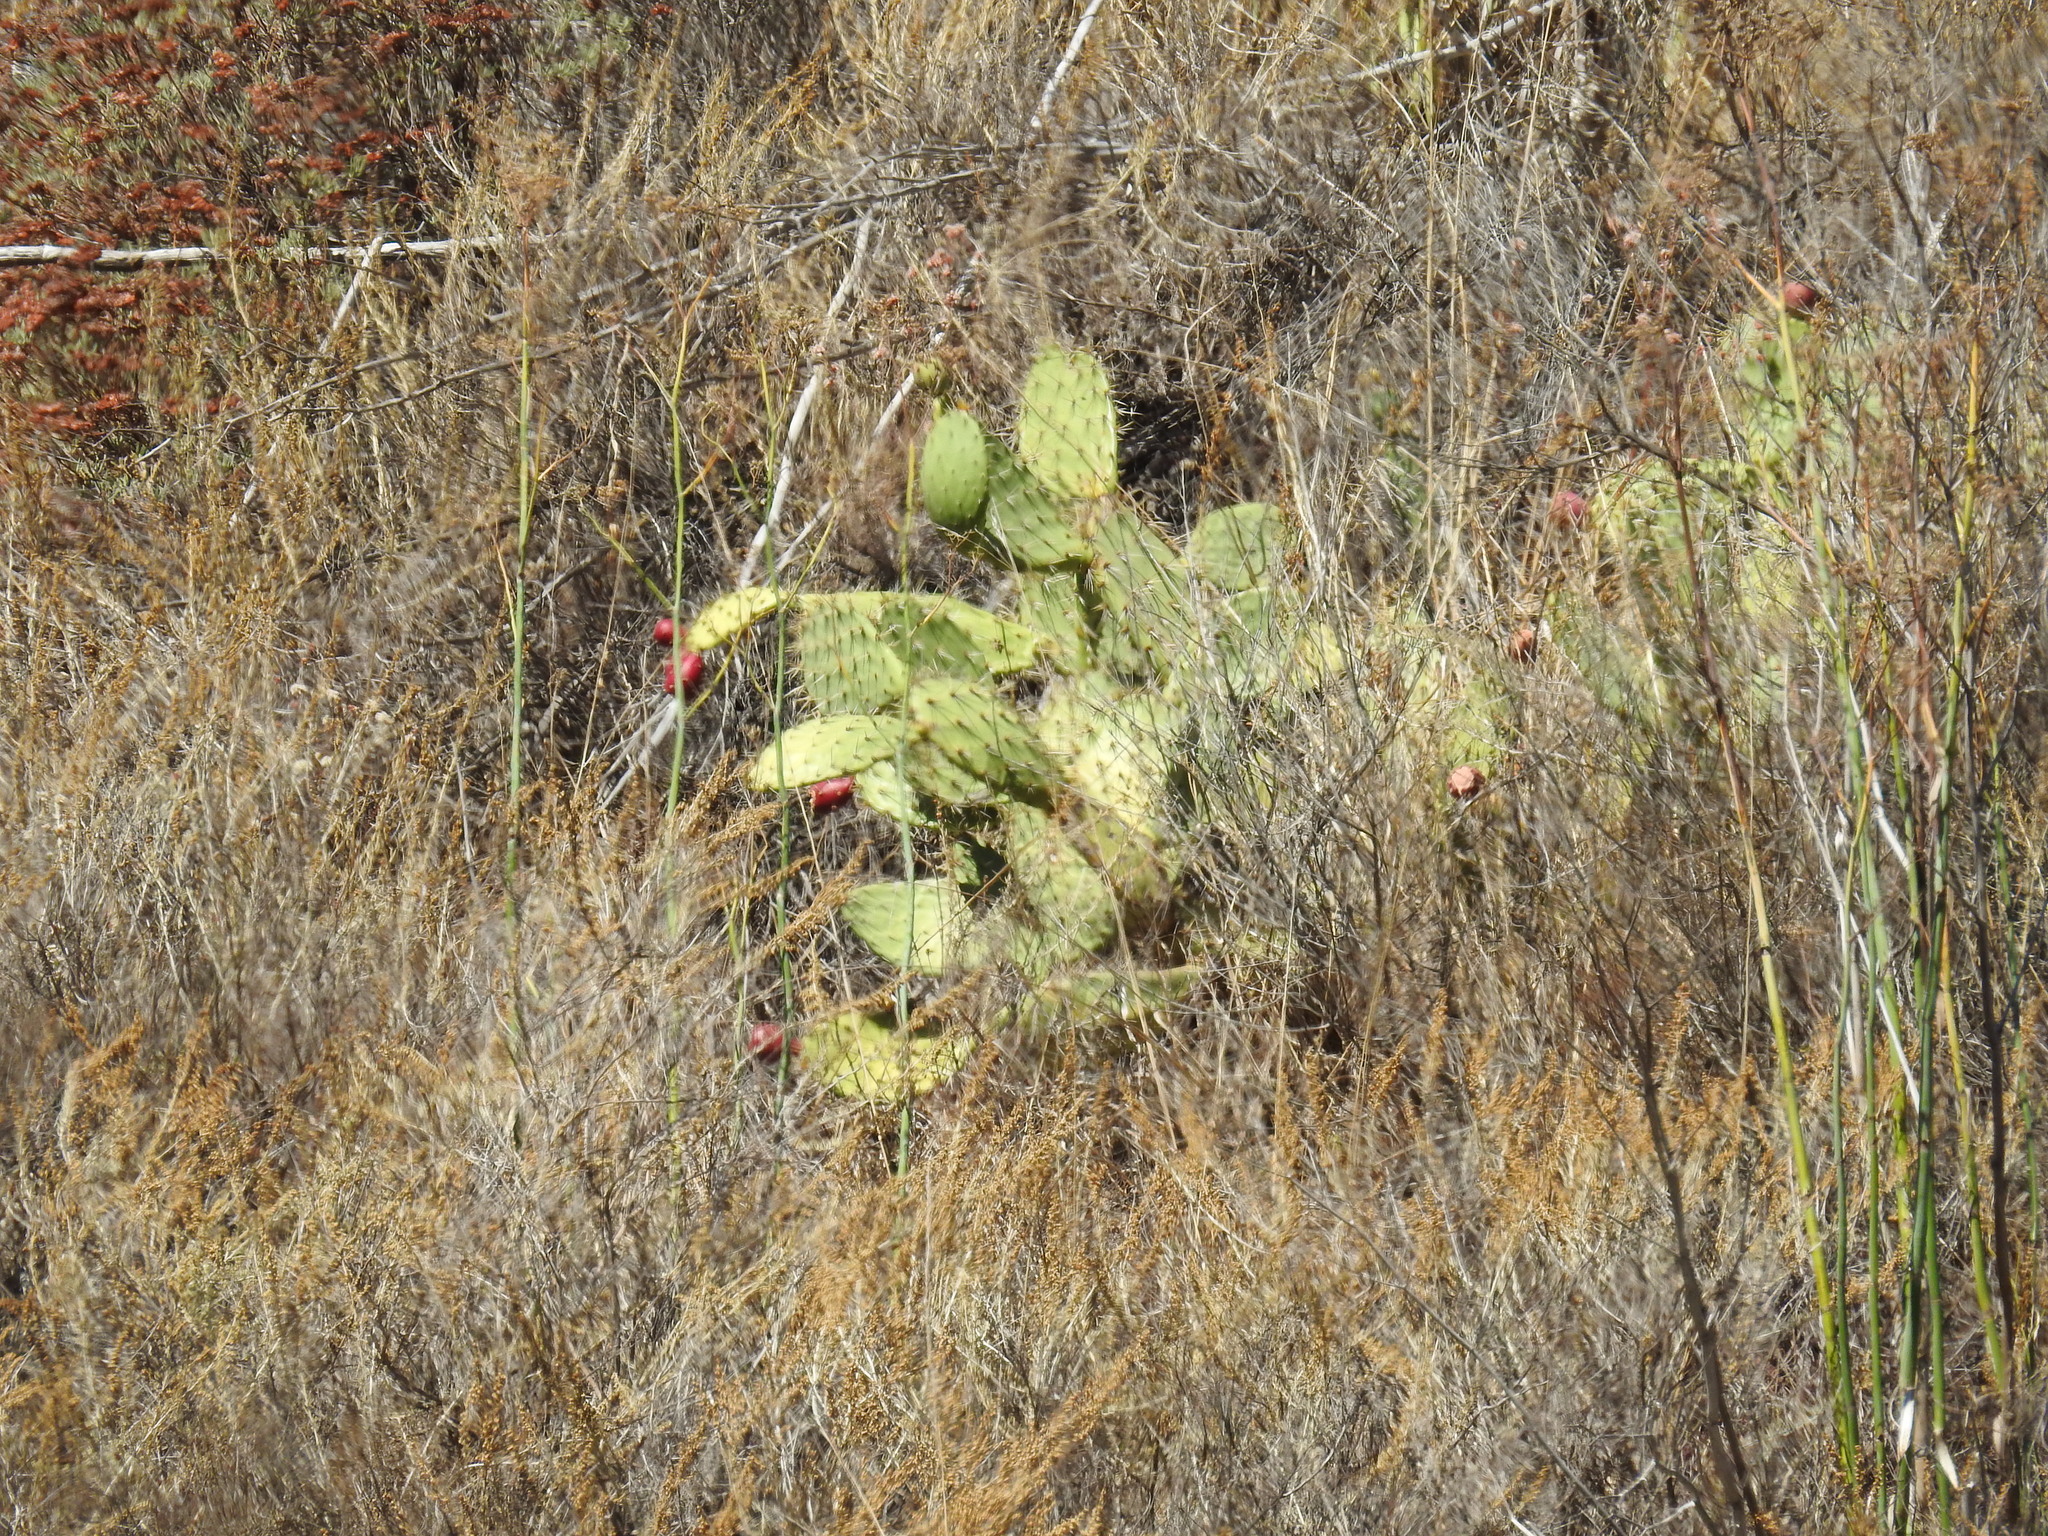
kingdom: Plantae
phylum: Tracheophyta
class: Magnoliopsida
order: Caryophyllales
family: Cactaceae
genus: Opuntia
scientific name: Opuntia littoralis
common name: Coastal prickly-pear
